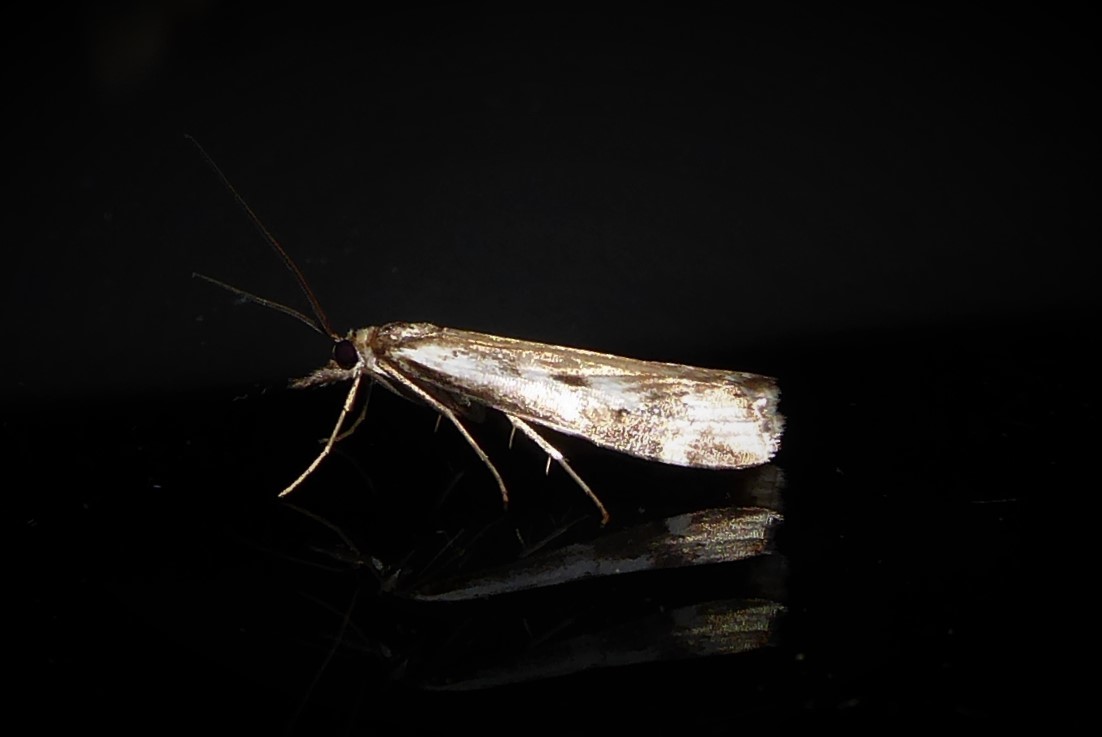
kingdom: Animalia
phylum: Arthropoda
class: Insecta
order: Lepidoptera
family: Crambidae
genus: Orocrambus
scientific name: Orocrambus vulgaris
